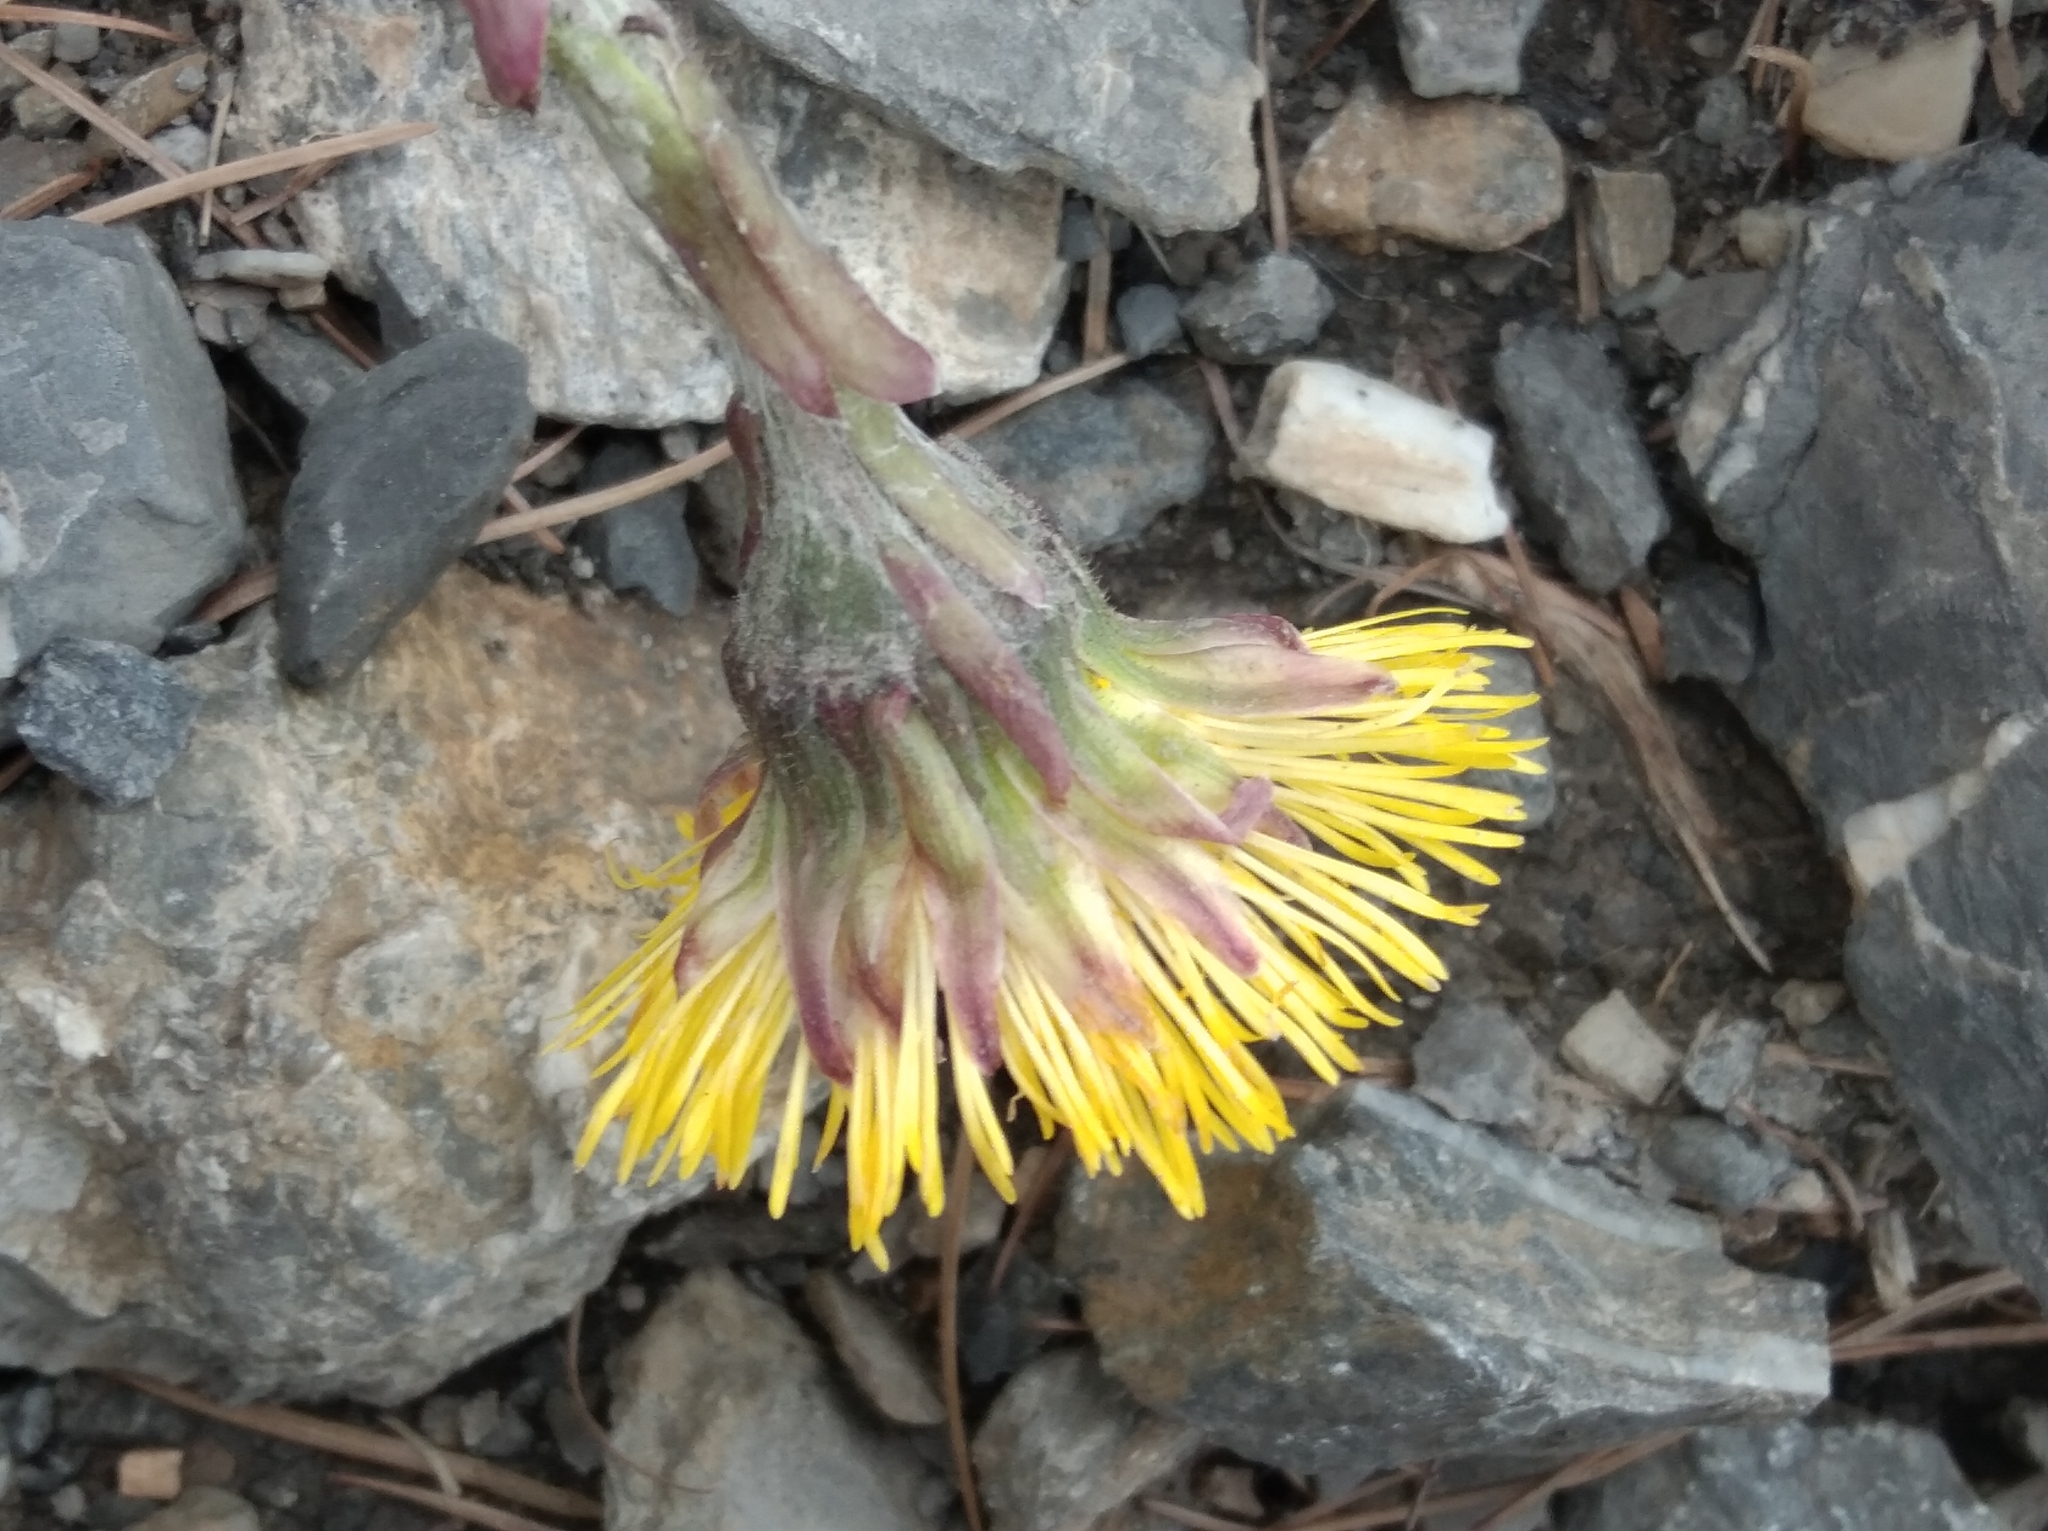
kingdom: Plantae
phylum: Tracheophyta
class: Magnoliopsida
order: Asterales
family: Asteraceae
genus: Tussilago
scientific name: Tussilago farfara
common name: Coltsfoot
